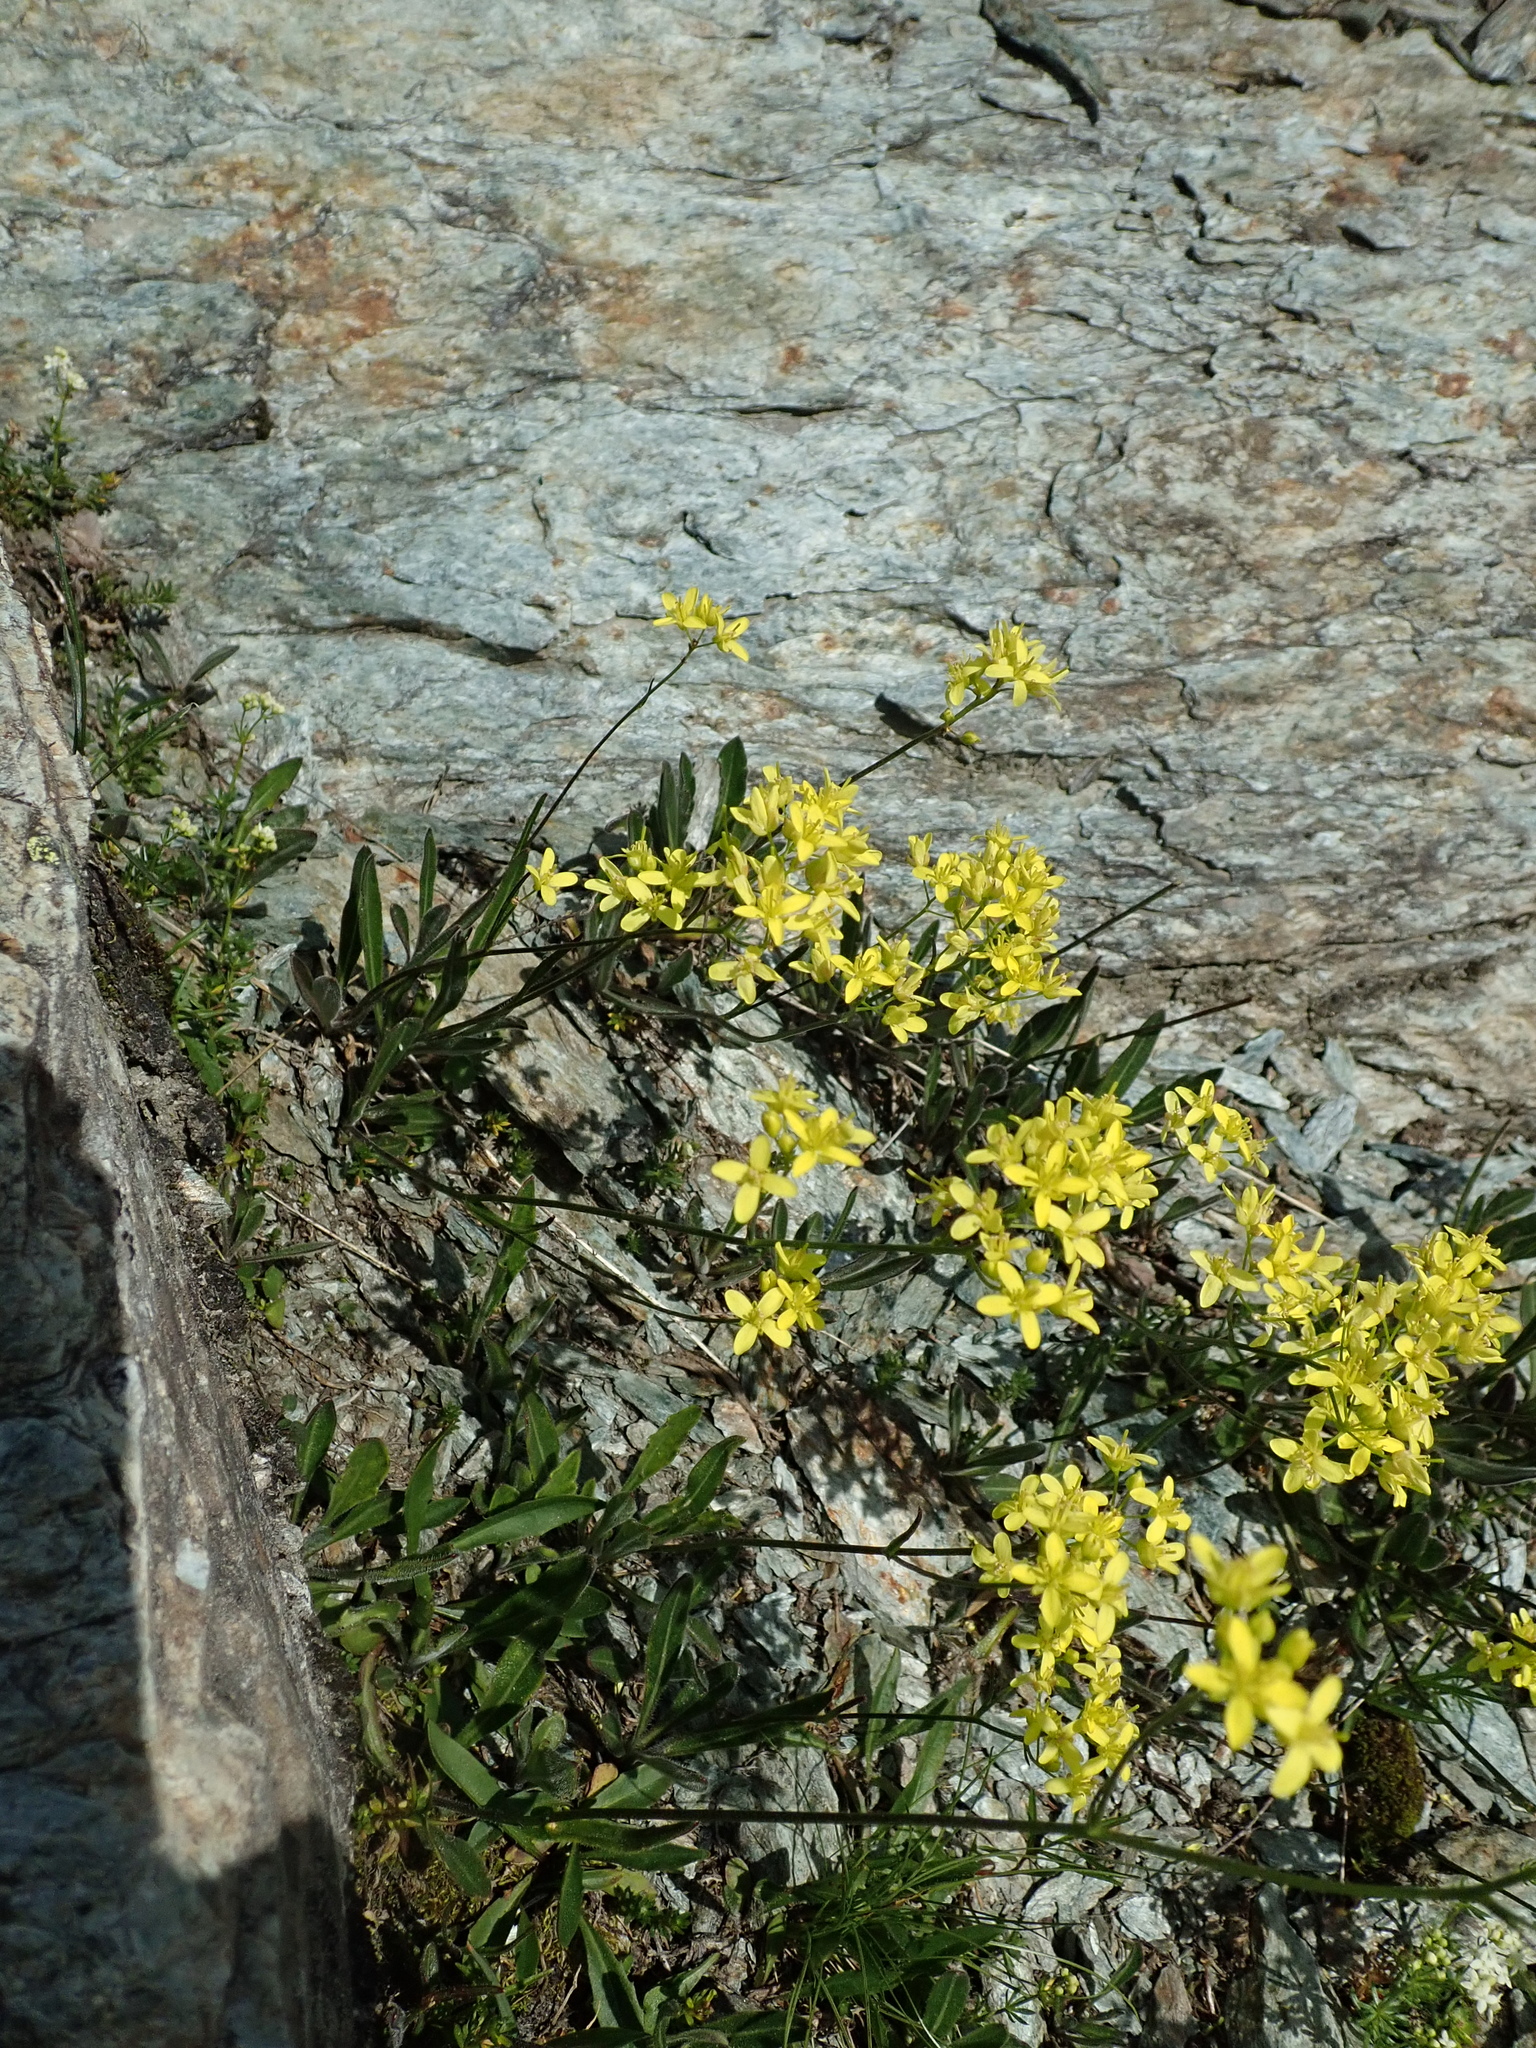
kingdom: Plantae
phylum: Tracheophyta
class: Magnoliopsida
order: Brassicales
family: Brassicaceae
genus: Biscutella
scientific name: Biscutella laevigata
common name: Buckler mustard
